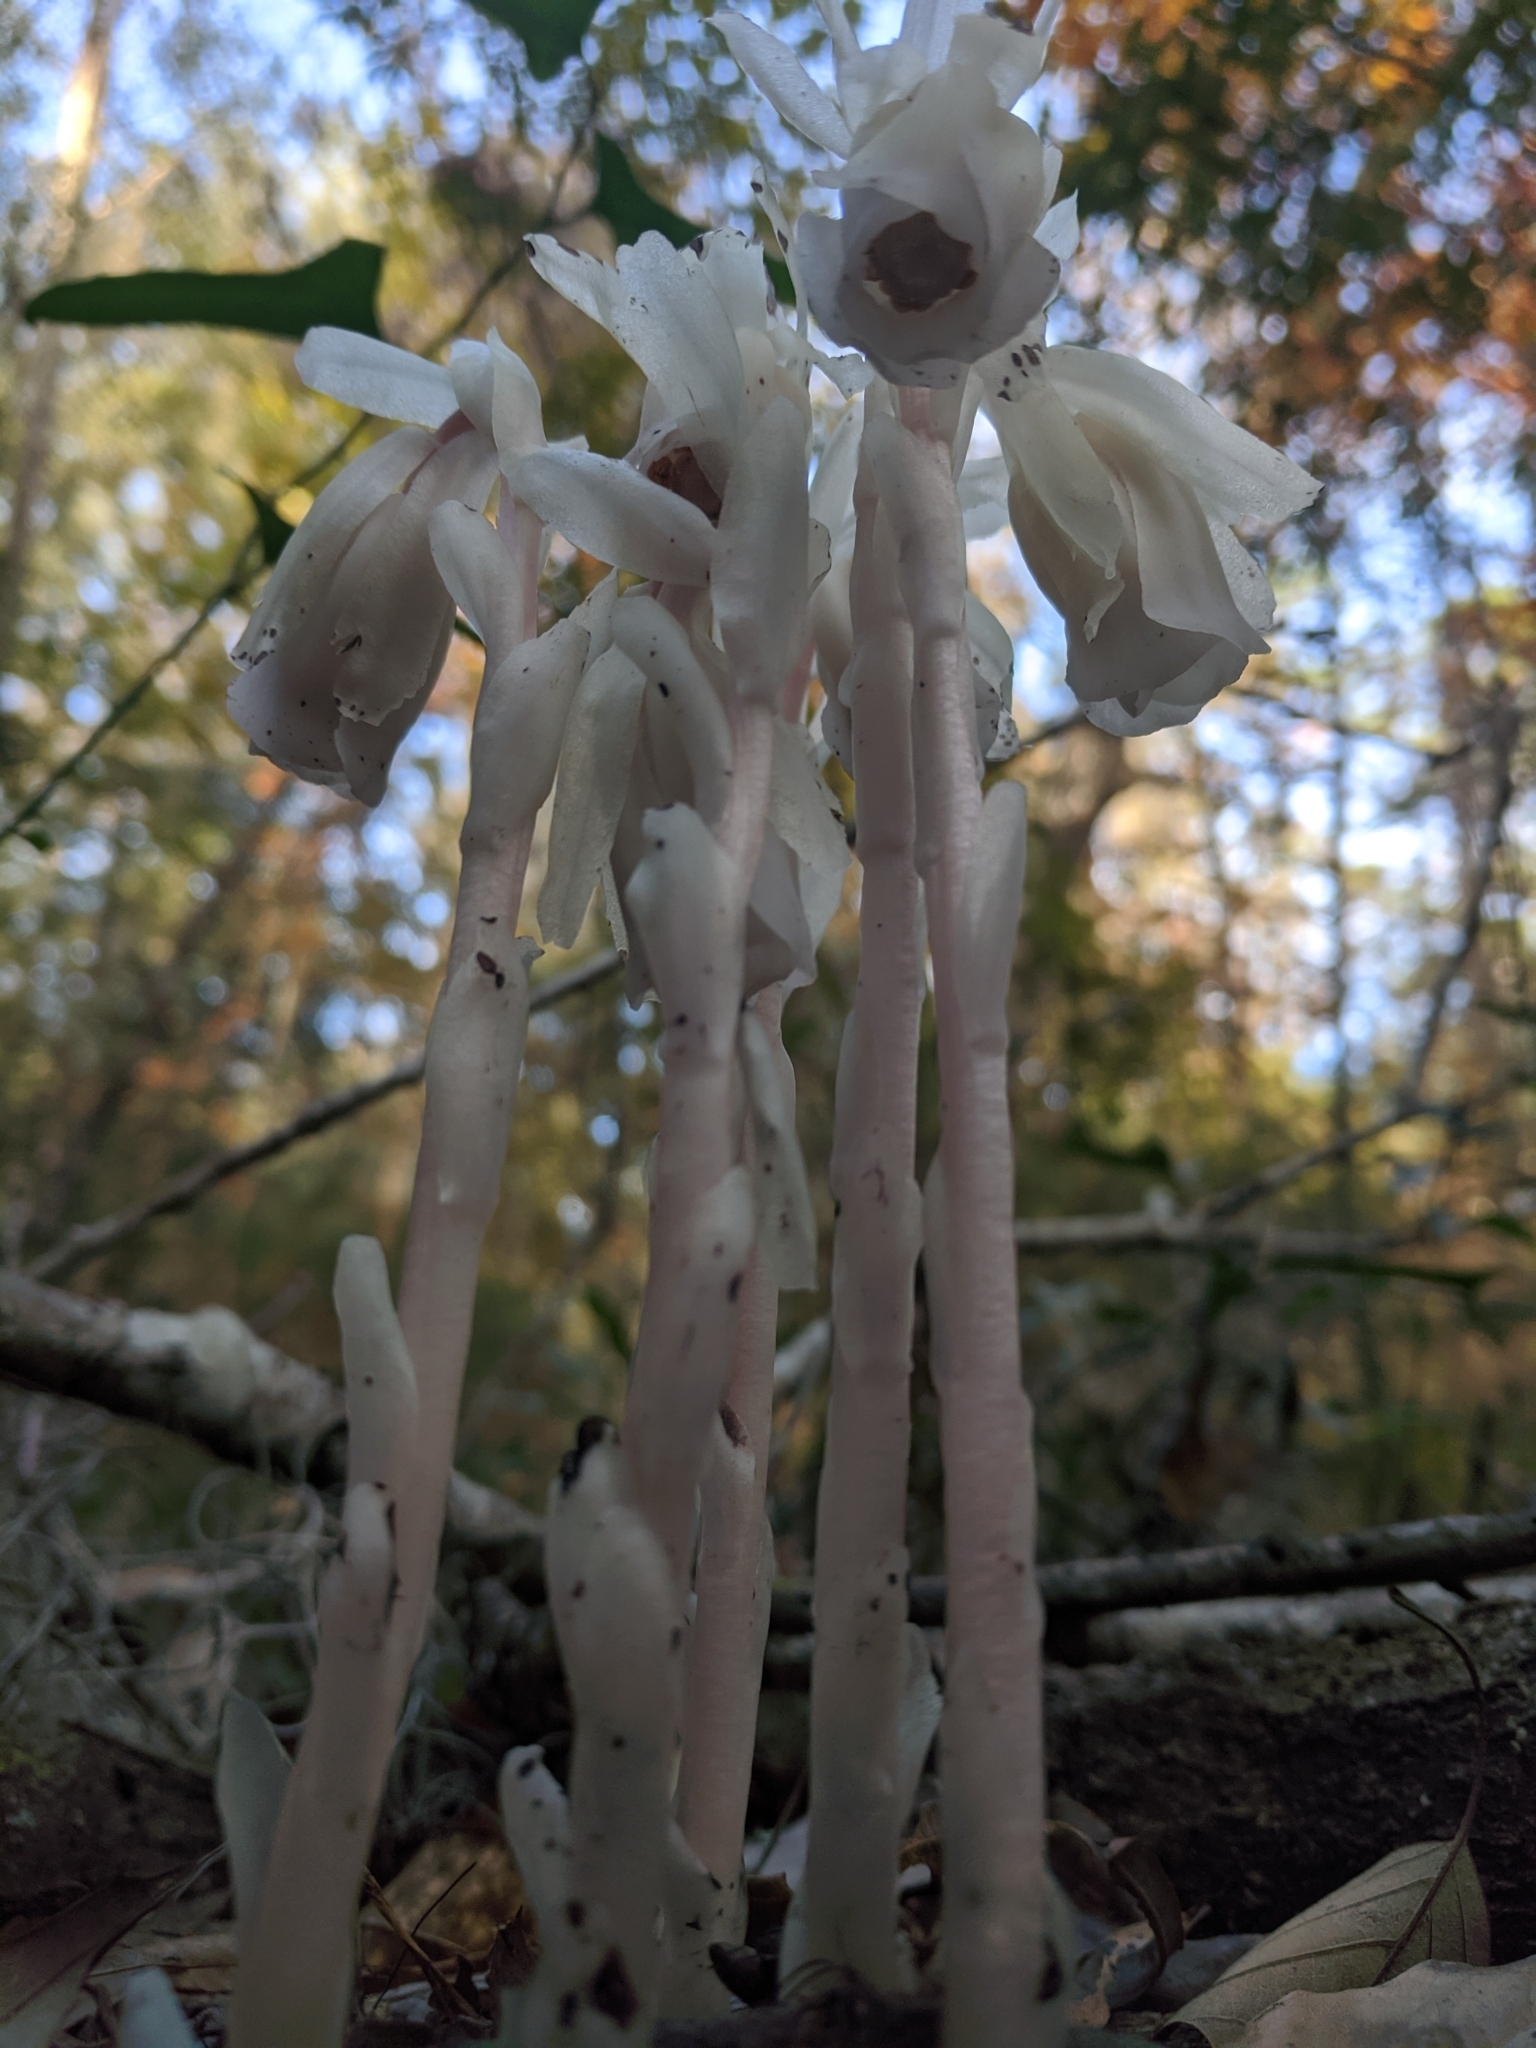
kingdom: Plantae
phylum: Tracheophyta
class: Magnoliopsida
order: Ericales
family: Ericaceae
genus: Monotropa
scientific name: Monotropa uniflora
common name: Convulsion root
